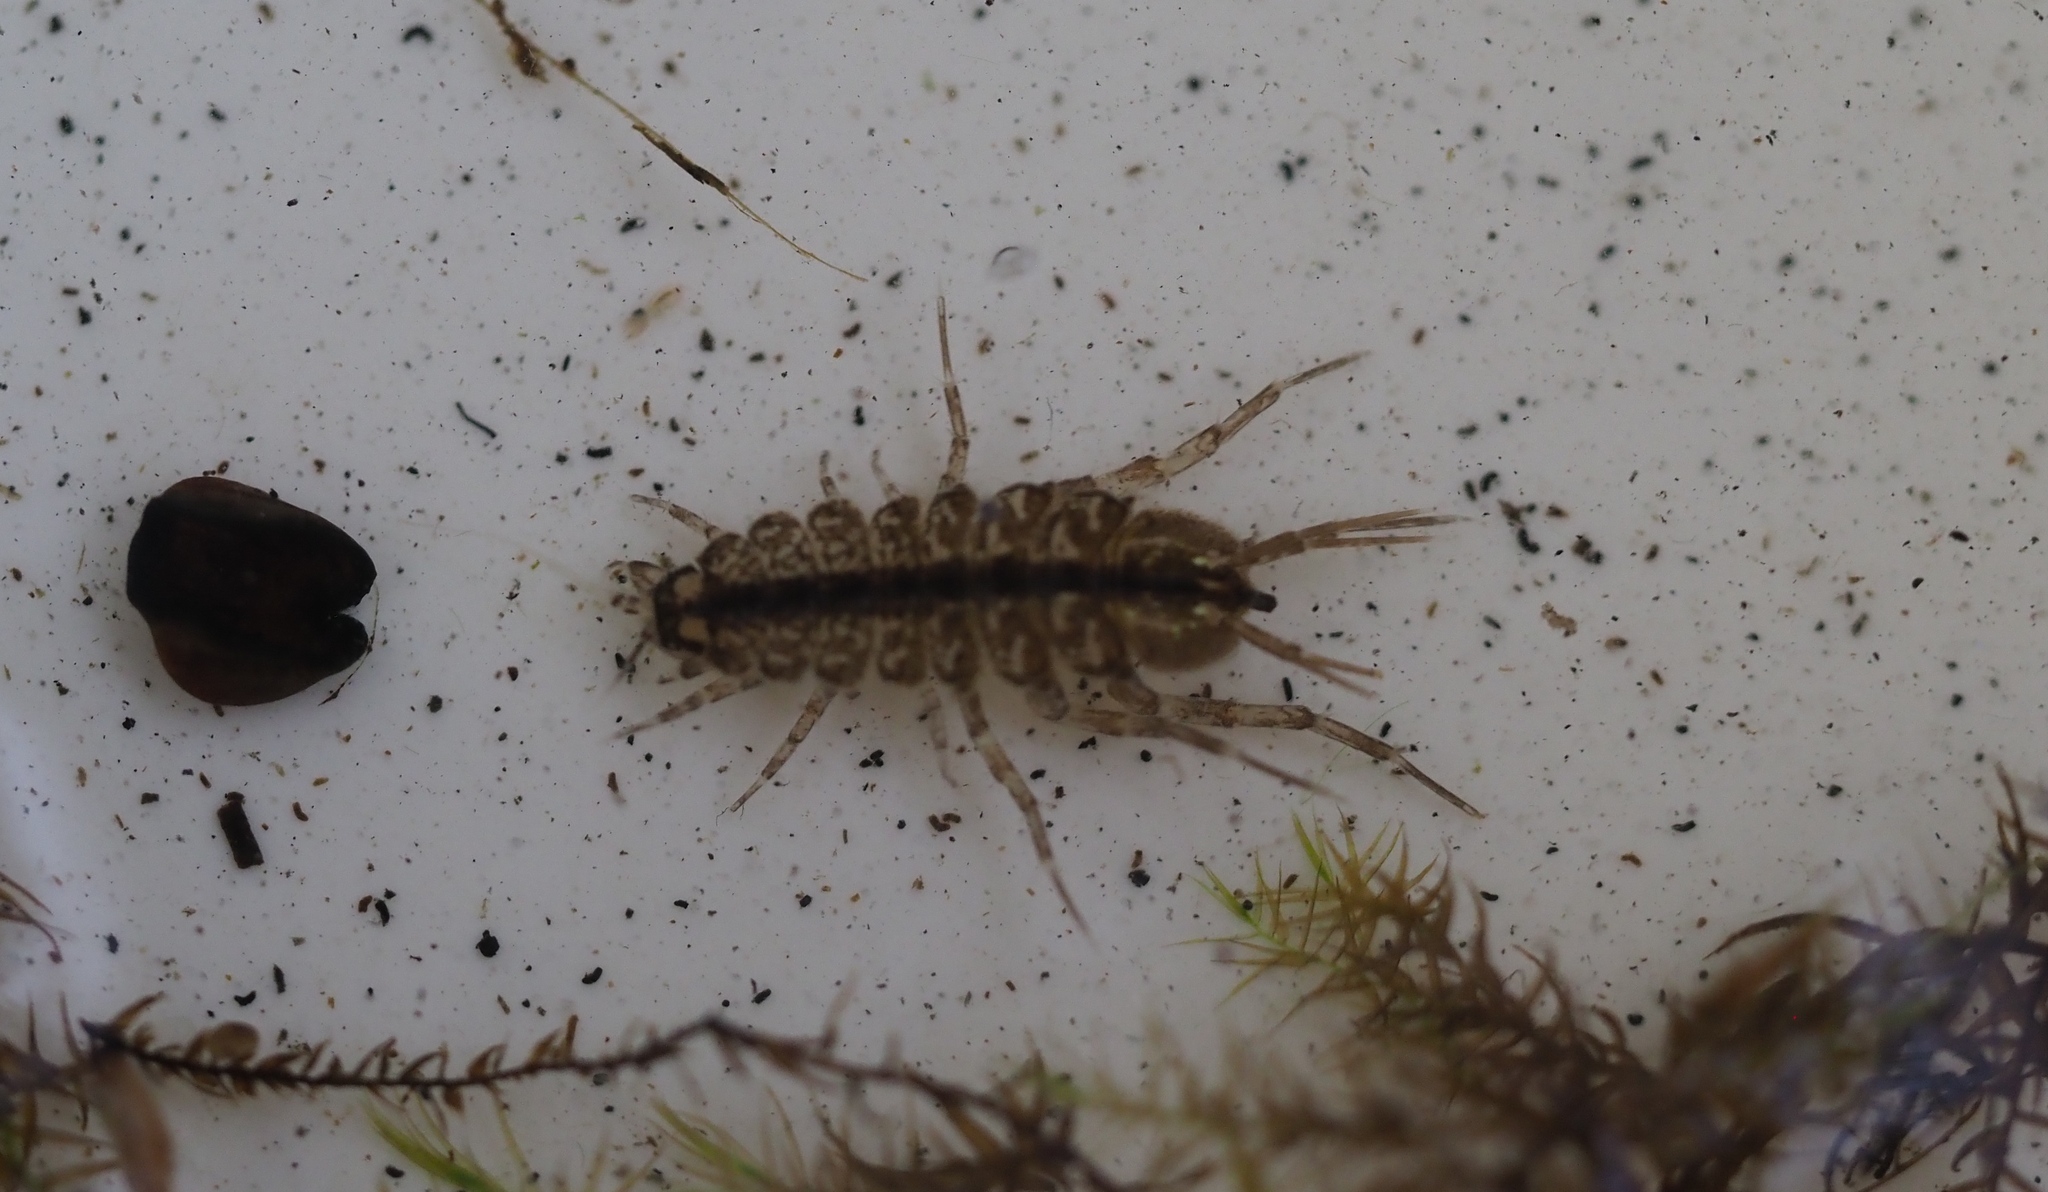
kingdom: Animalia
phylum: Arthropoda
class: Malacostraca
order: Isopoda
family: Asellidae
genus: Asellus
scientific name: Asellus aquaticus
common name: Water hog lice/slaters
